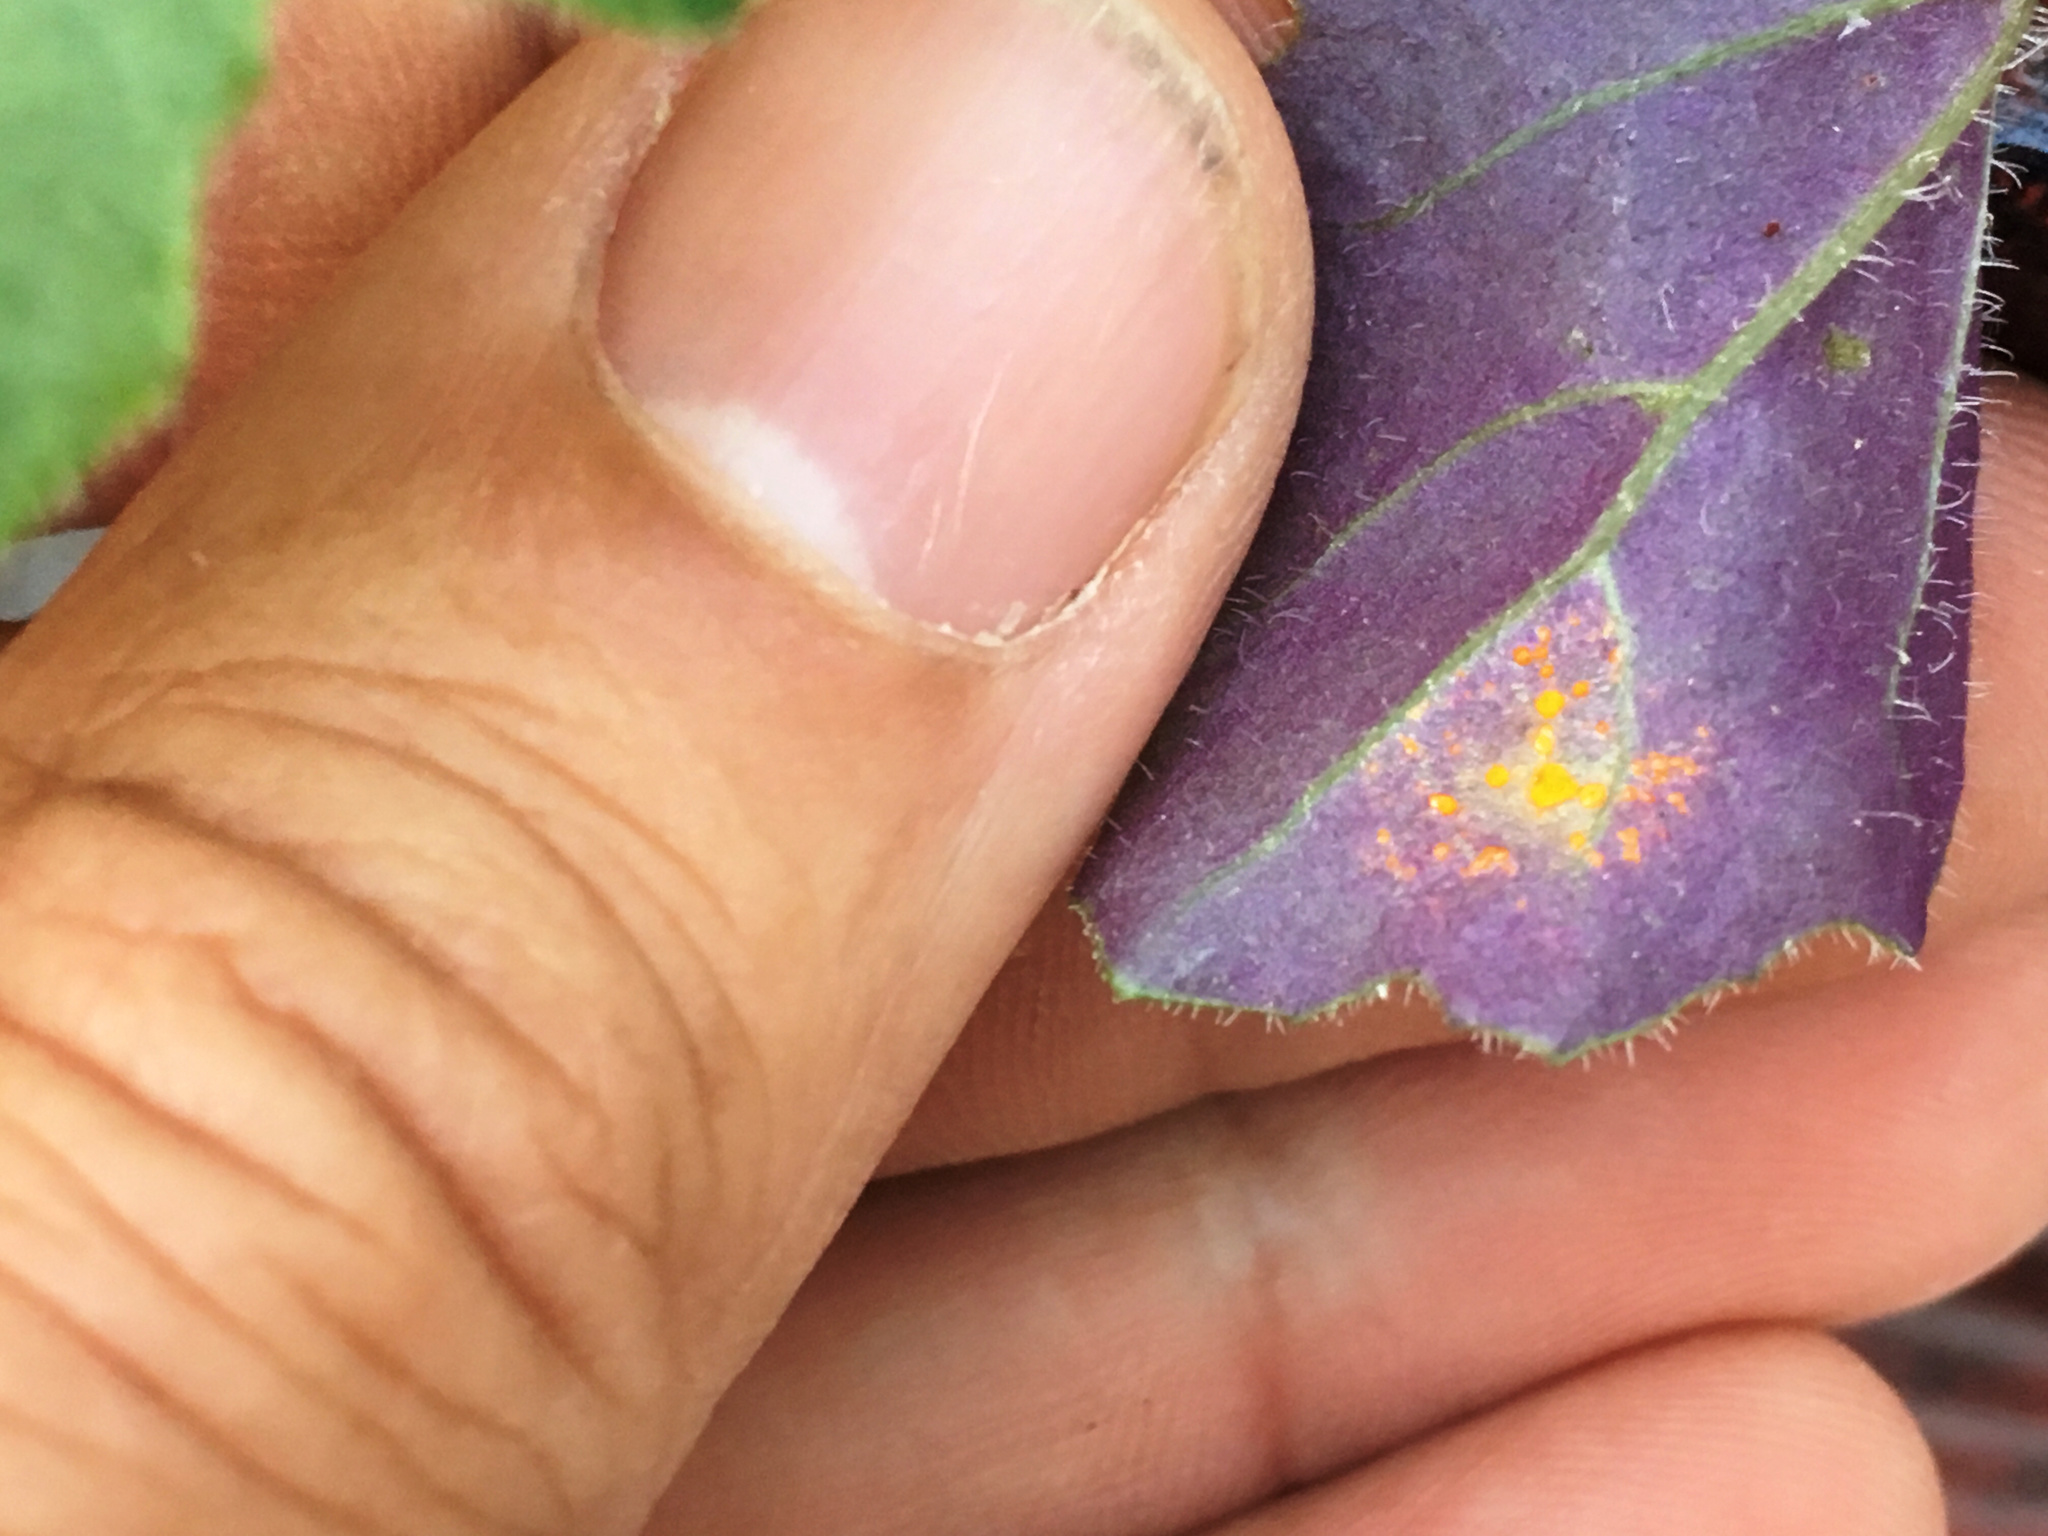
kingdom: Fungi
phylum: Basidiomycota
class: Pucciniomycetes
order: Pucciniales
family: Coleosporiaceae
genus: Coleosporium
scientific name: Coleosporium tussilaginis
